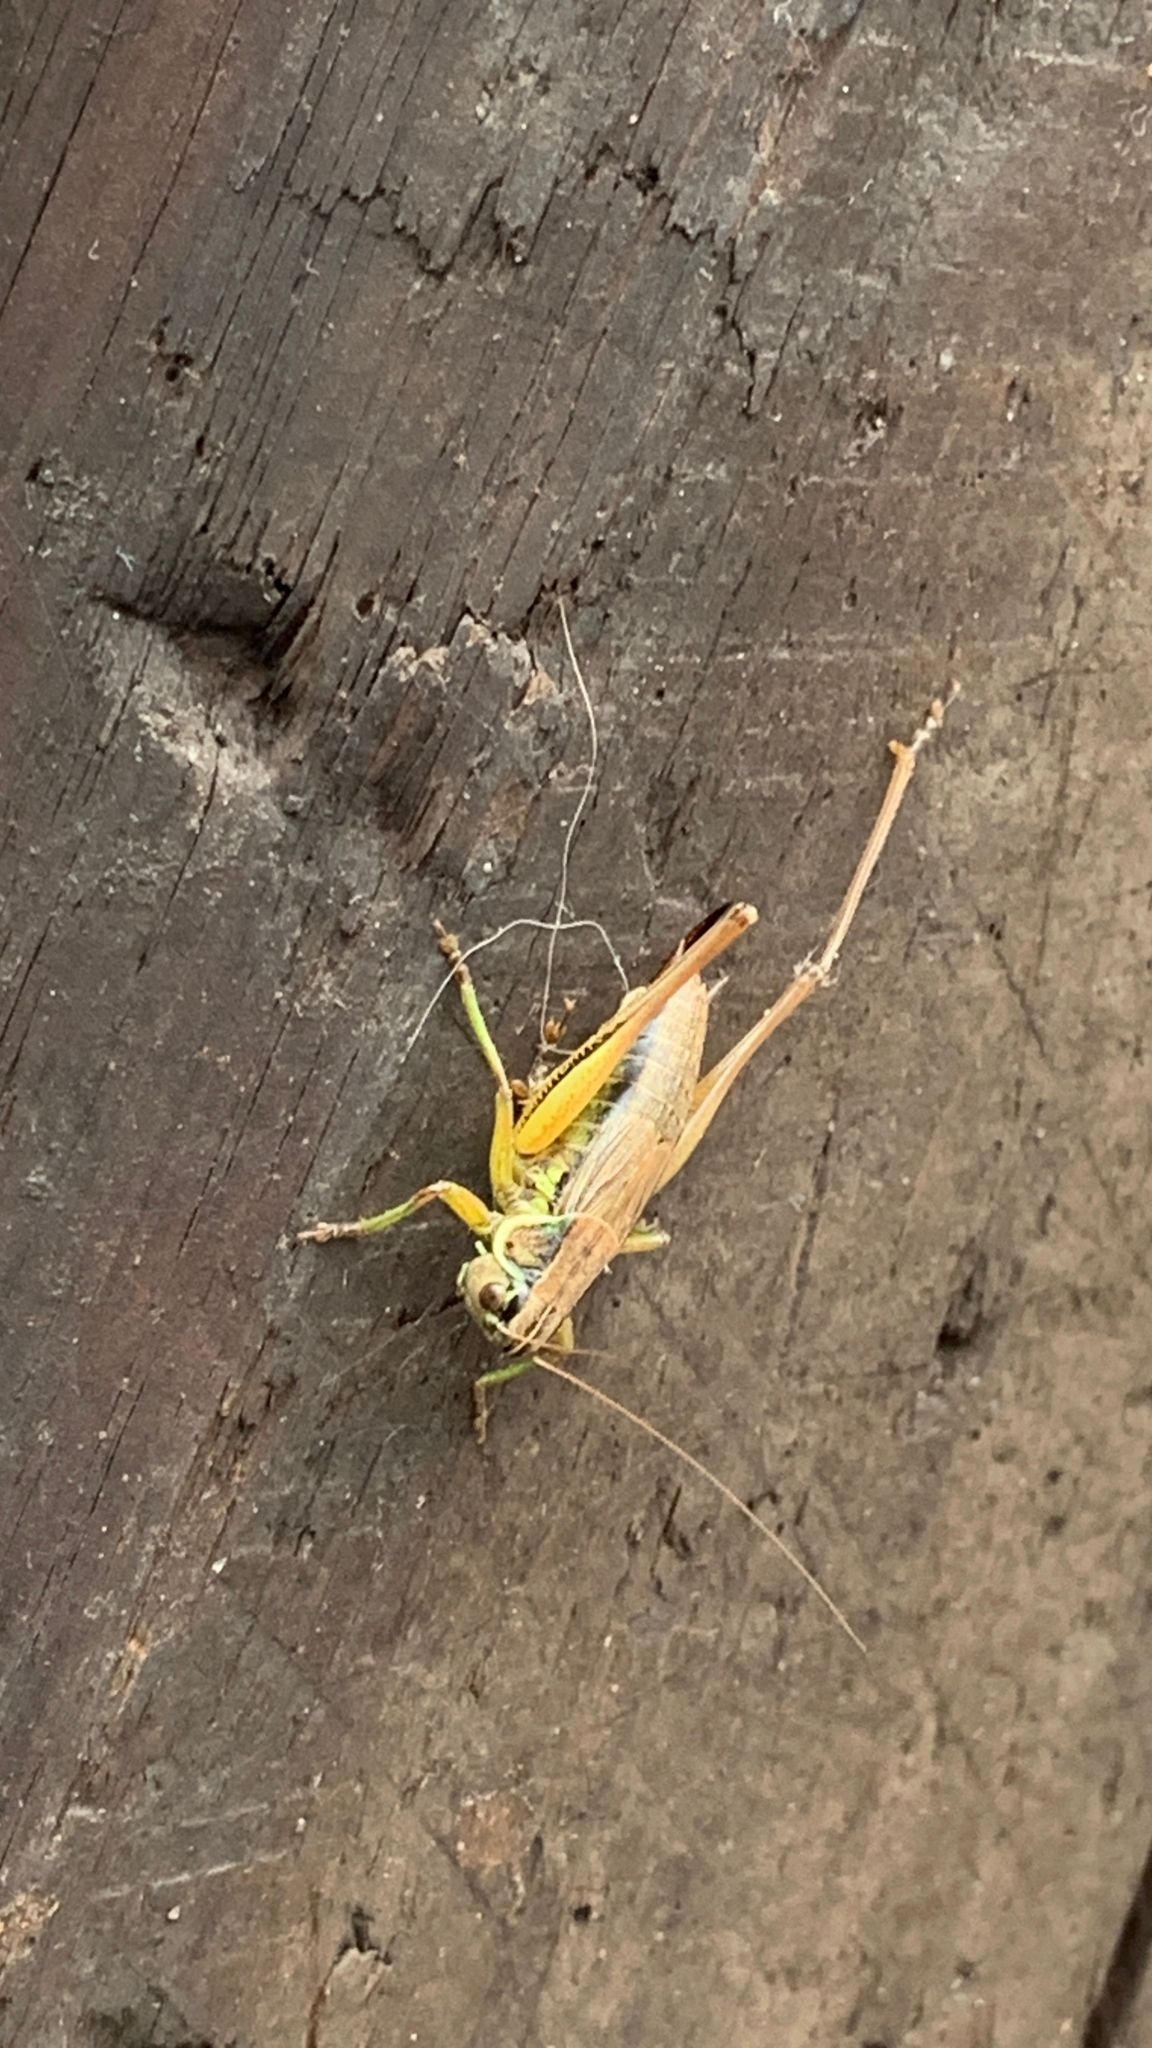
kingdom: Animalia
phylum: Arthropoda
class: Insecta
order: Orthoptera
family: Tettigoniidae
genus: Roeseliana
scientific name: Roeseliana roeselii
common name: Roesel's bush cricket
